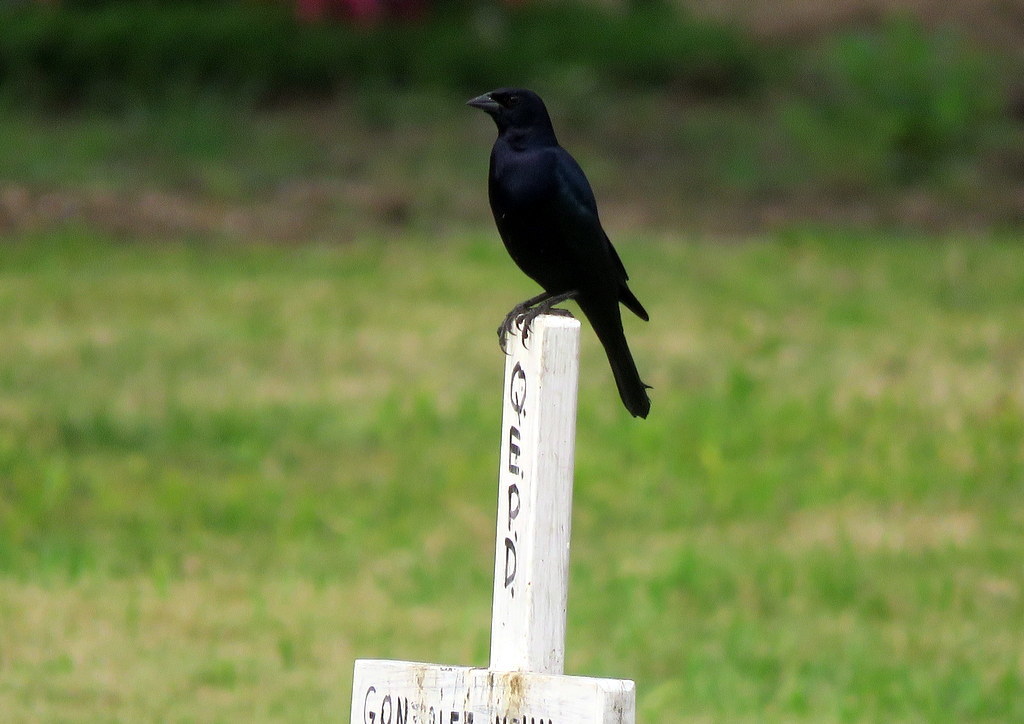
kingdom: Animalia
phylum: Chordata
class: Aves
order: Passeriformes
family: Icteridae
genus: Molothrus
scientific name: Molothrus bonariensis
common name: Shiny cowbird
